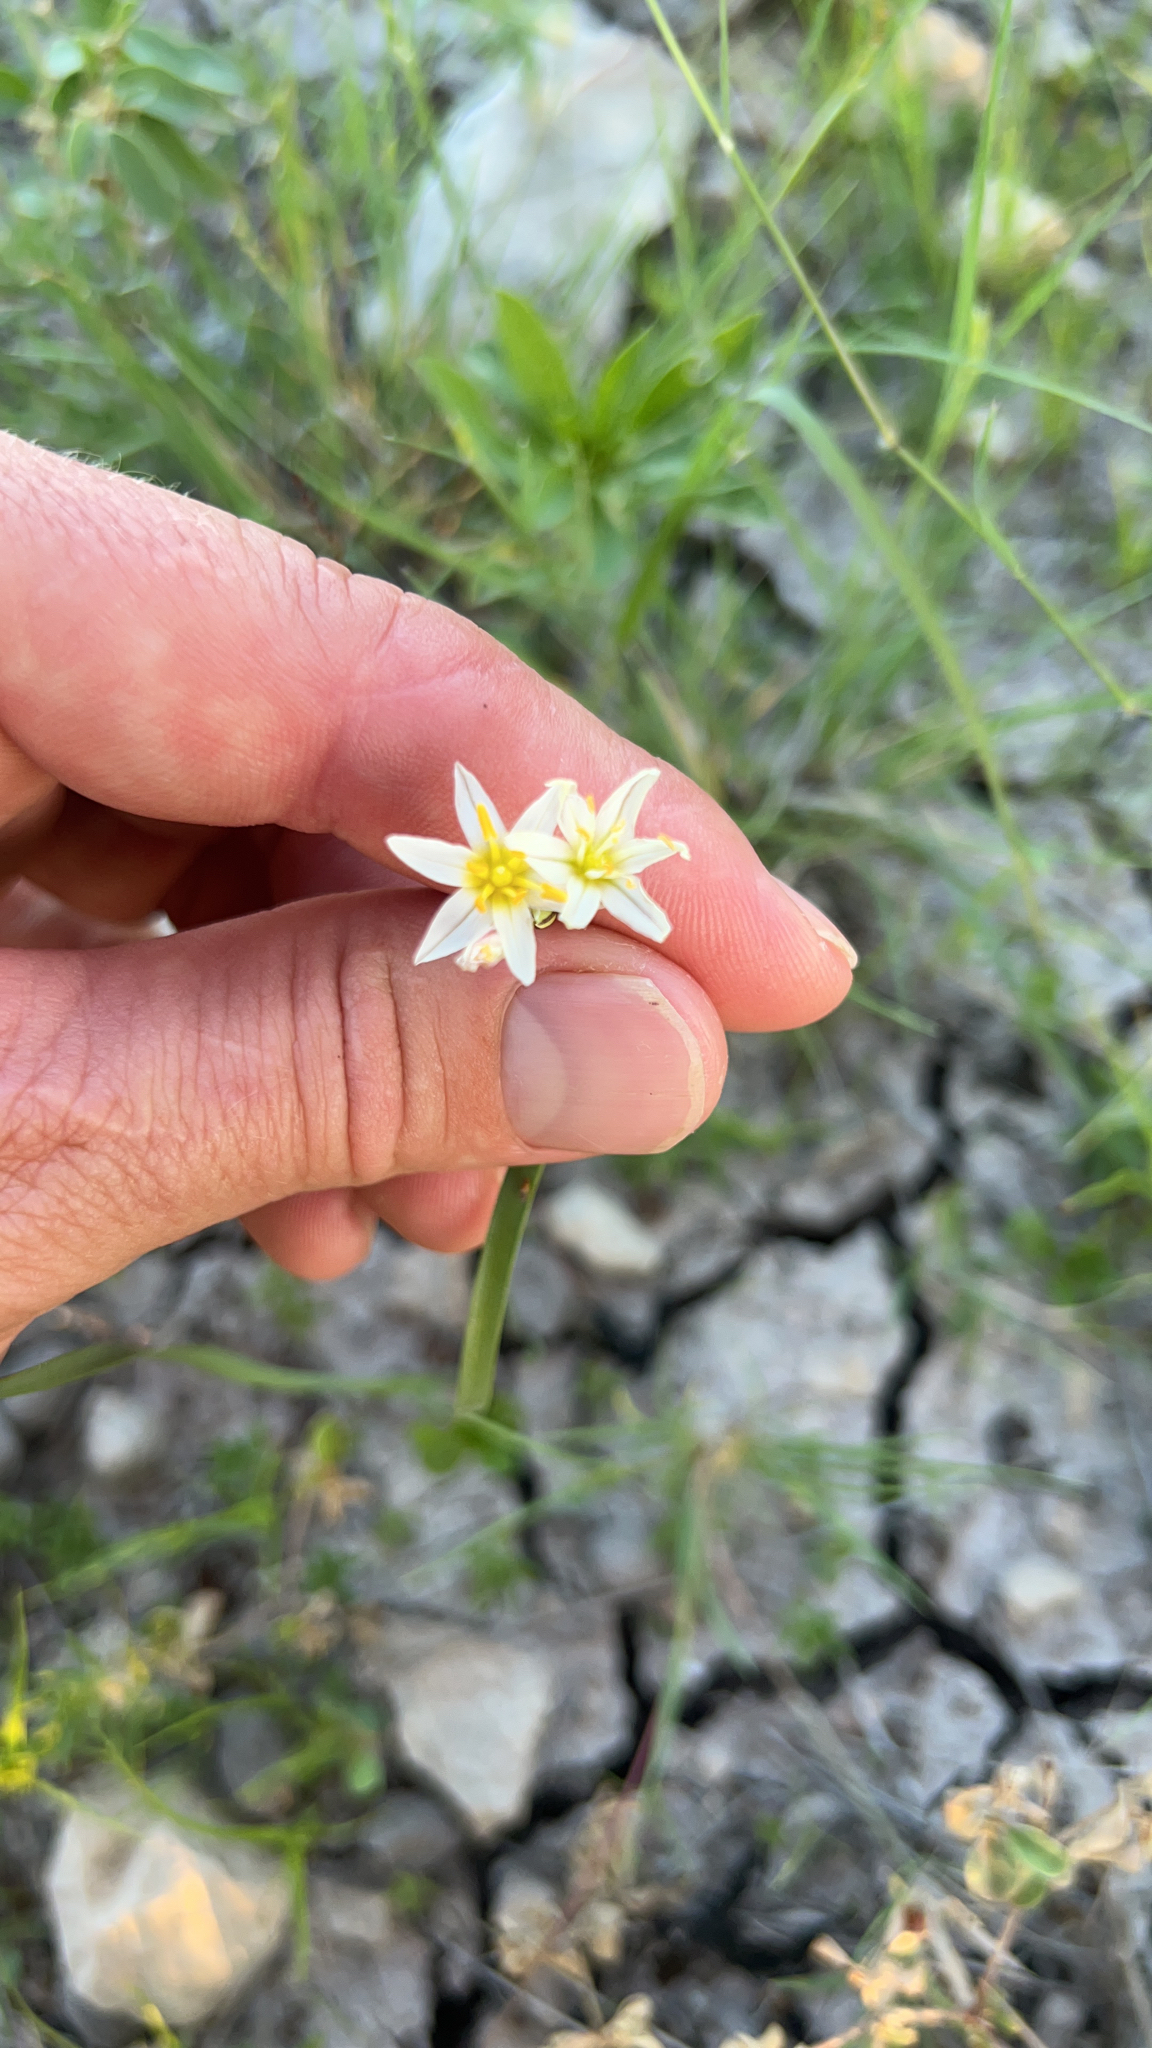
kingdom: Plantae
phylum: Tracheophyta
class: Liliopsida
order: Asparagales
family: Amaryllidaceae
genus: Nothoscordum
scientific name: Nothoscordum bivalve
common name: Crow-poison
